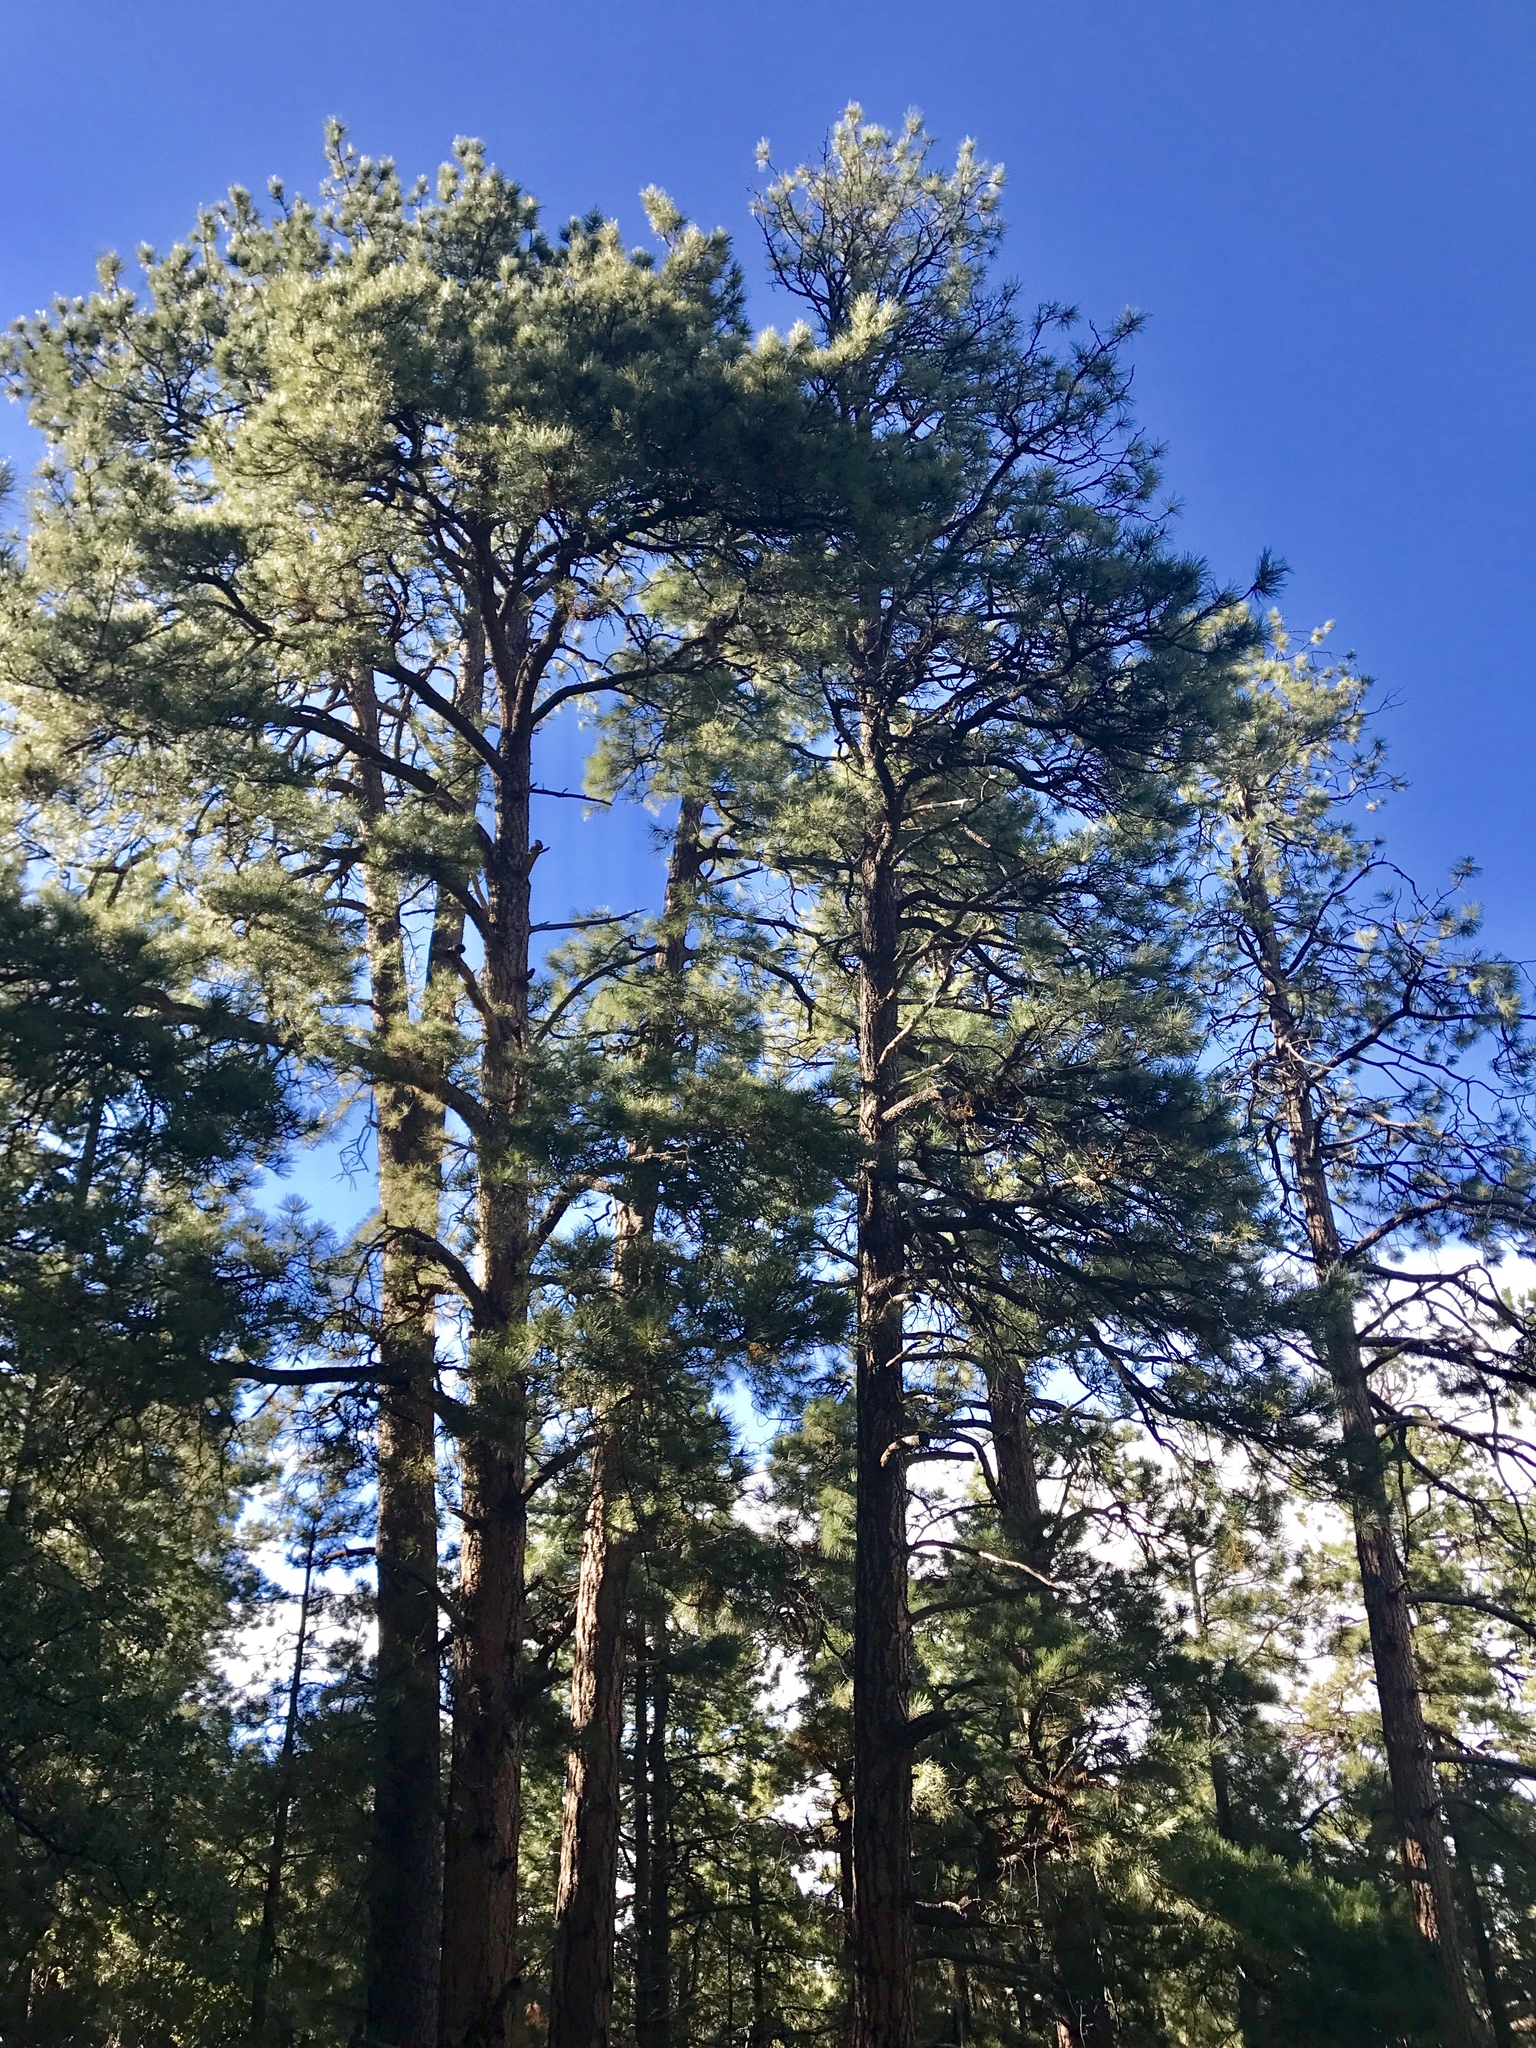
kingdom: Plantae
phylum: Tracheophyta
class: Pinopsida
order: Pinales
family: Pinaceae
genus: Pinus
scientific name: Pinus ponderosa
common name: Western yellow-pine
